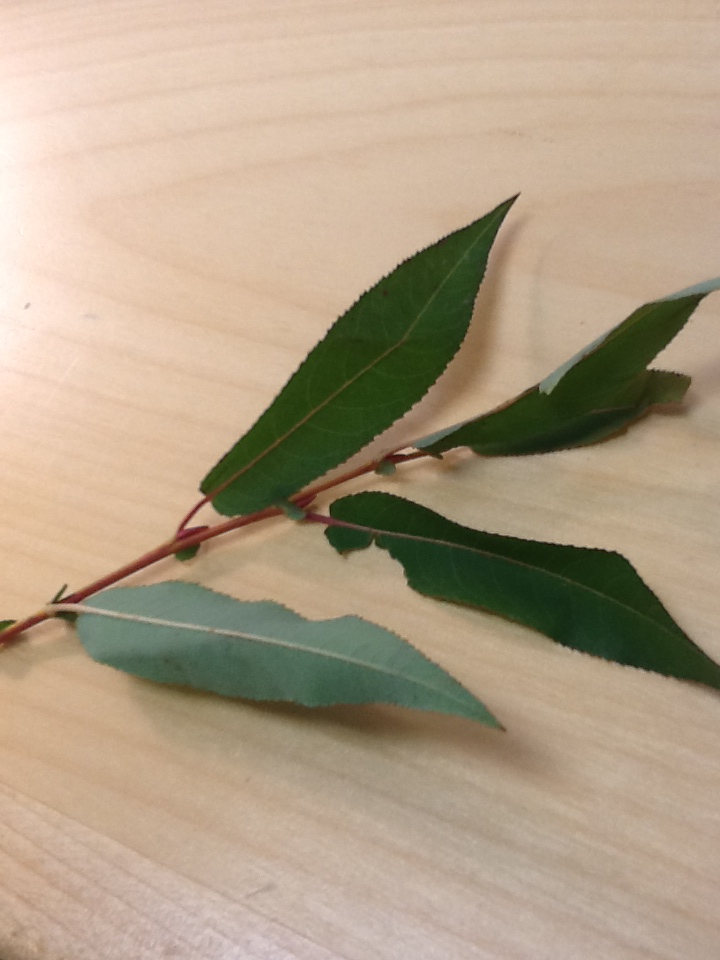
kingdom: Plantae
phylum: Tracheophyta
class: Magnoliopsida
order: Malpighiales
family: Salicaceae
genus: Salix
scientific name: Salix eriocephala
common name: Heart-leaved willow
